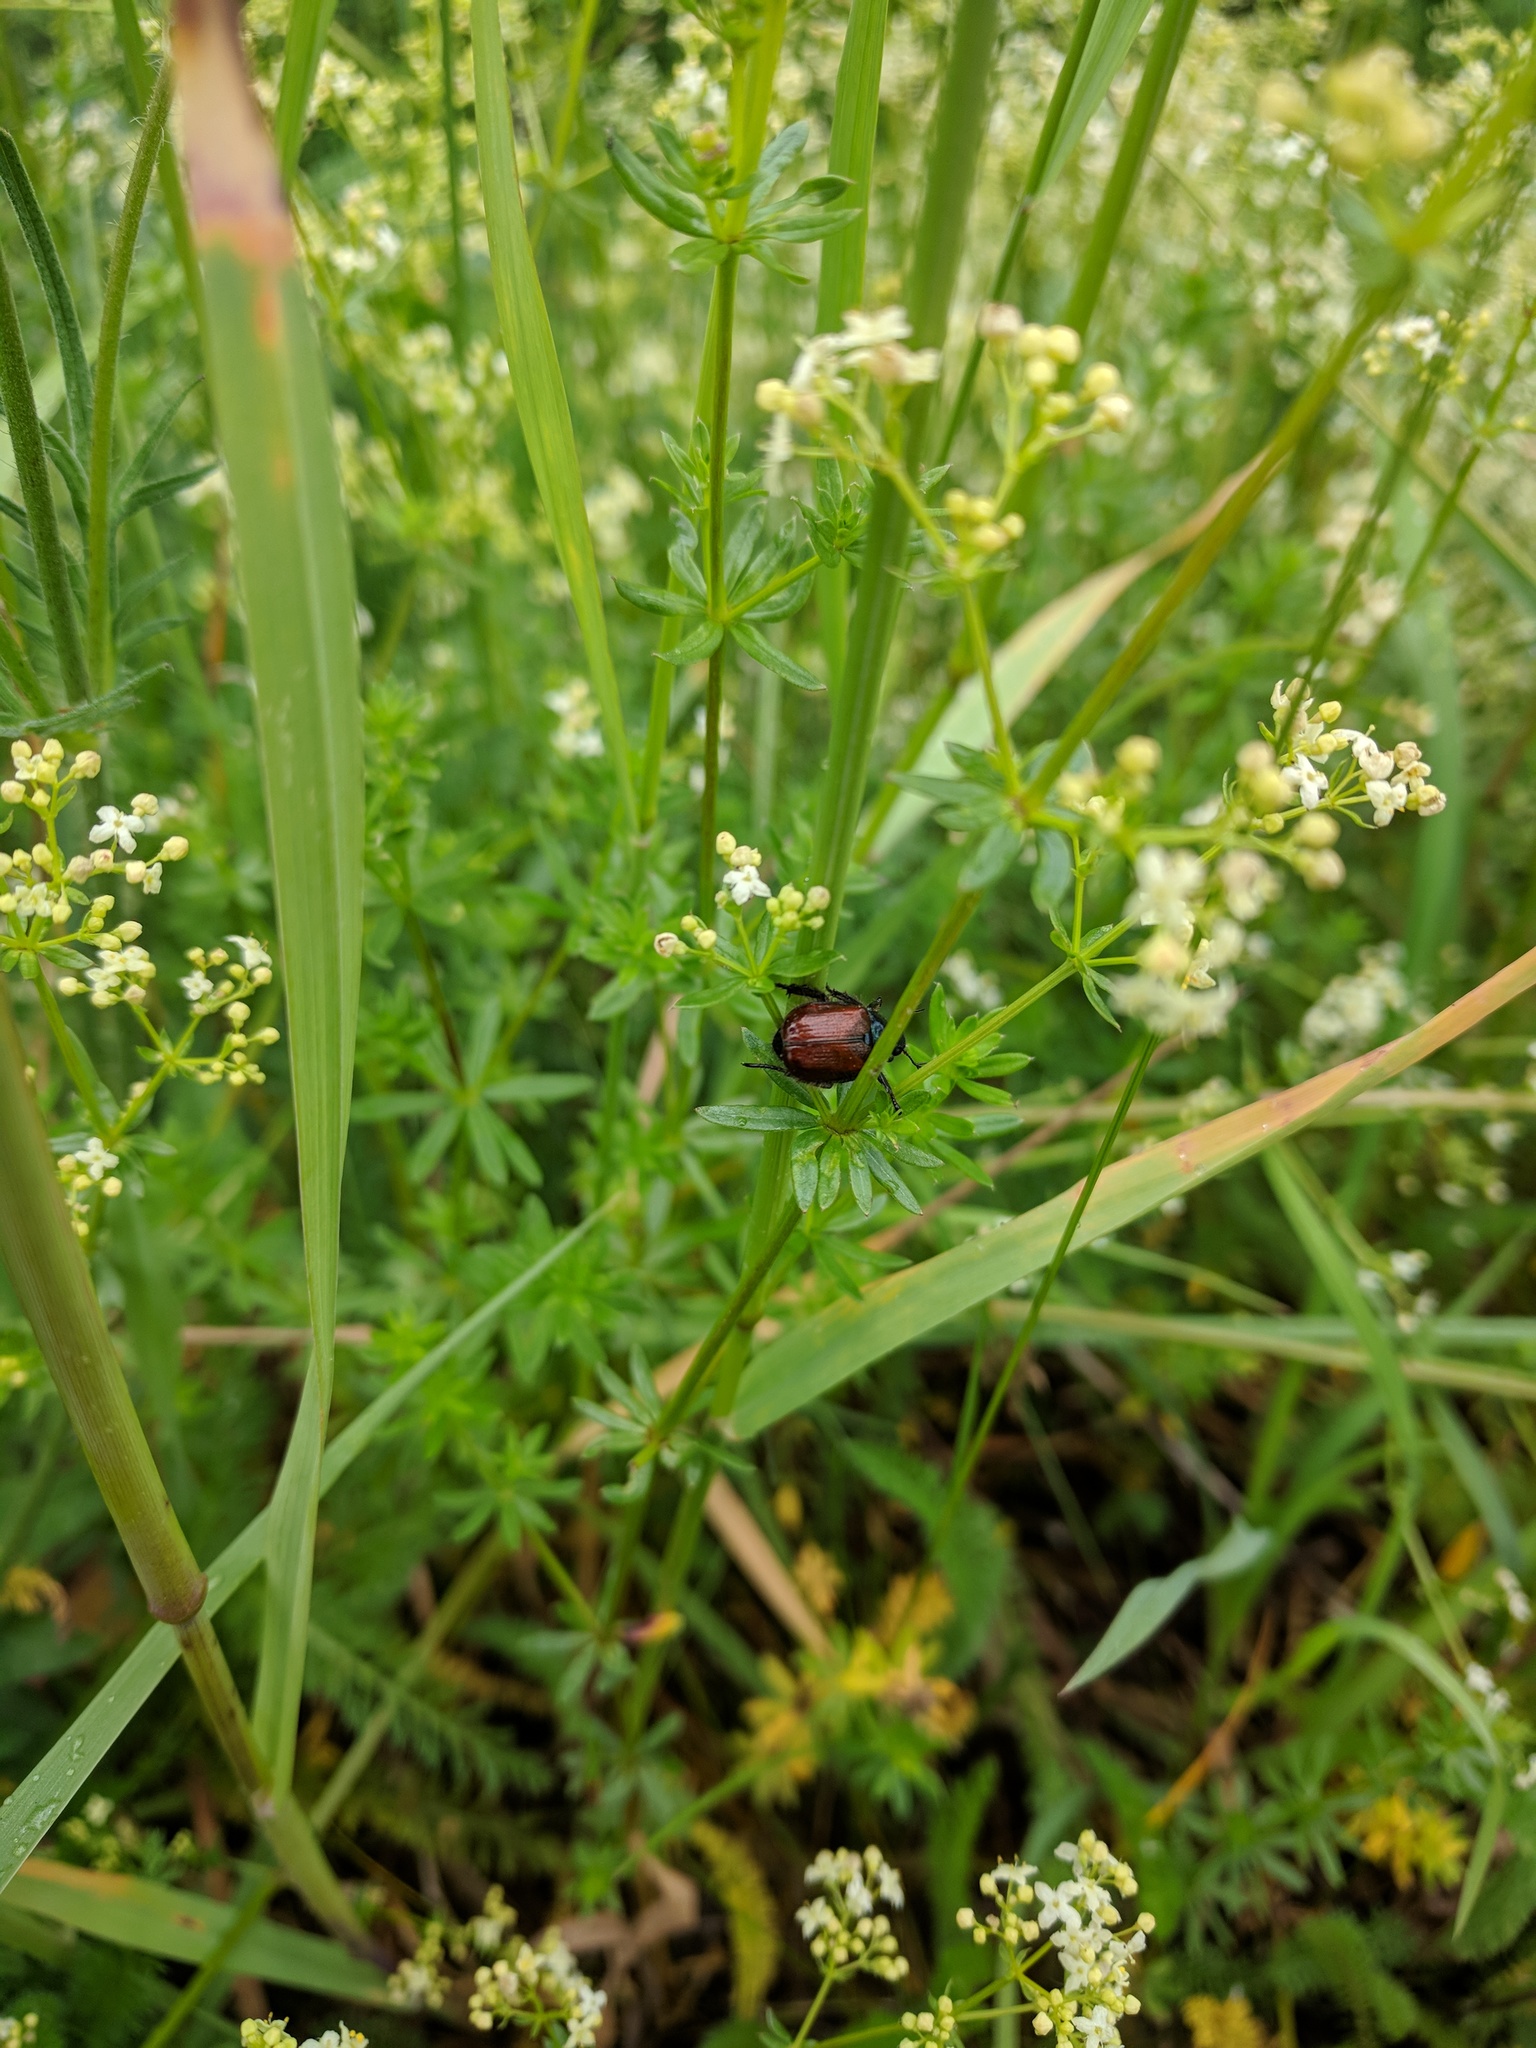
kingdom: Animalia
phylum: Arthropoda
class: Insecta
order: Coleoptera
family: Scarabaeidae
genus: Phyllopertha
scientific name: Phyllopertha horticola
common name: Garden chafer
